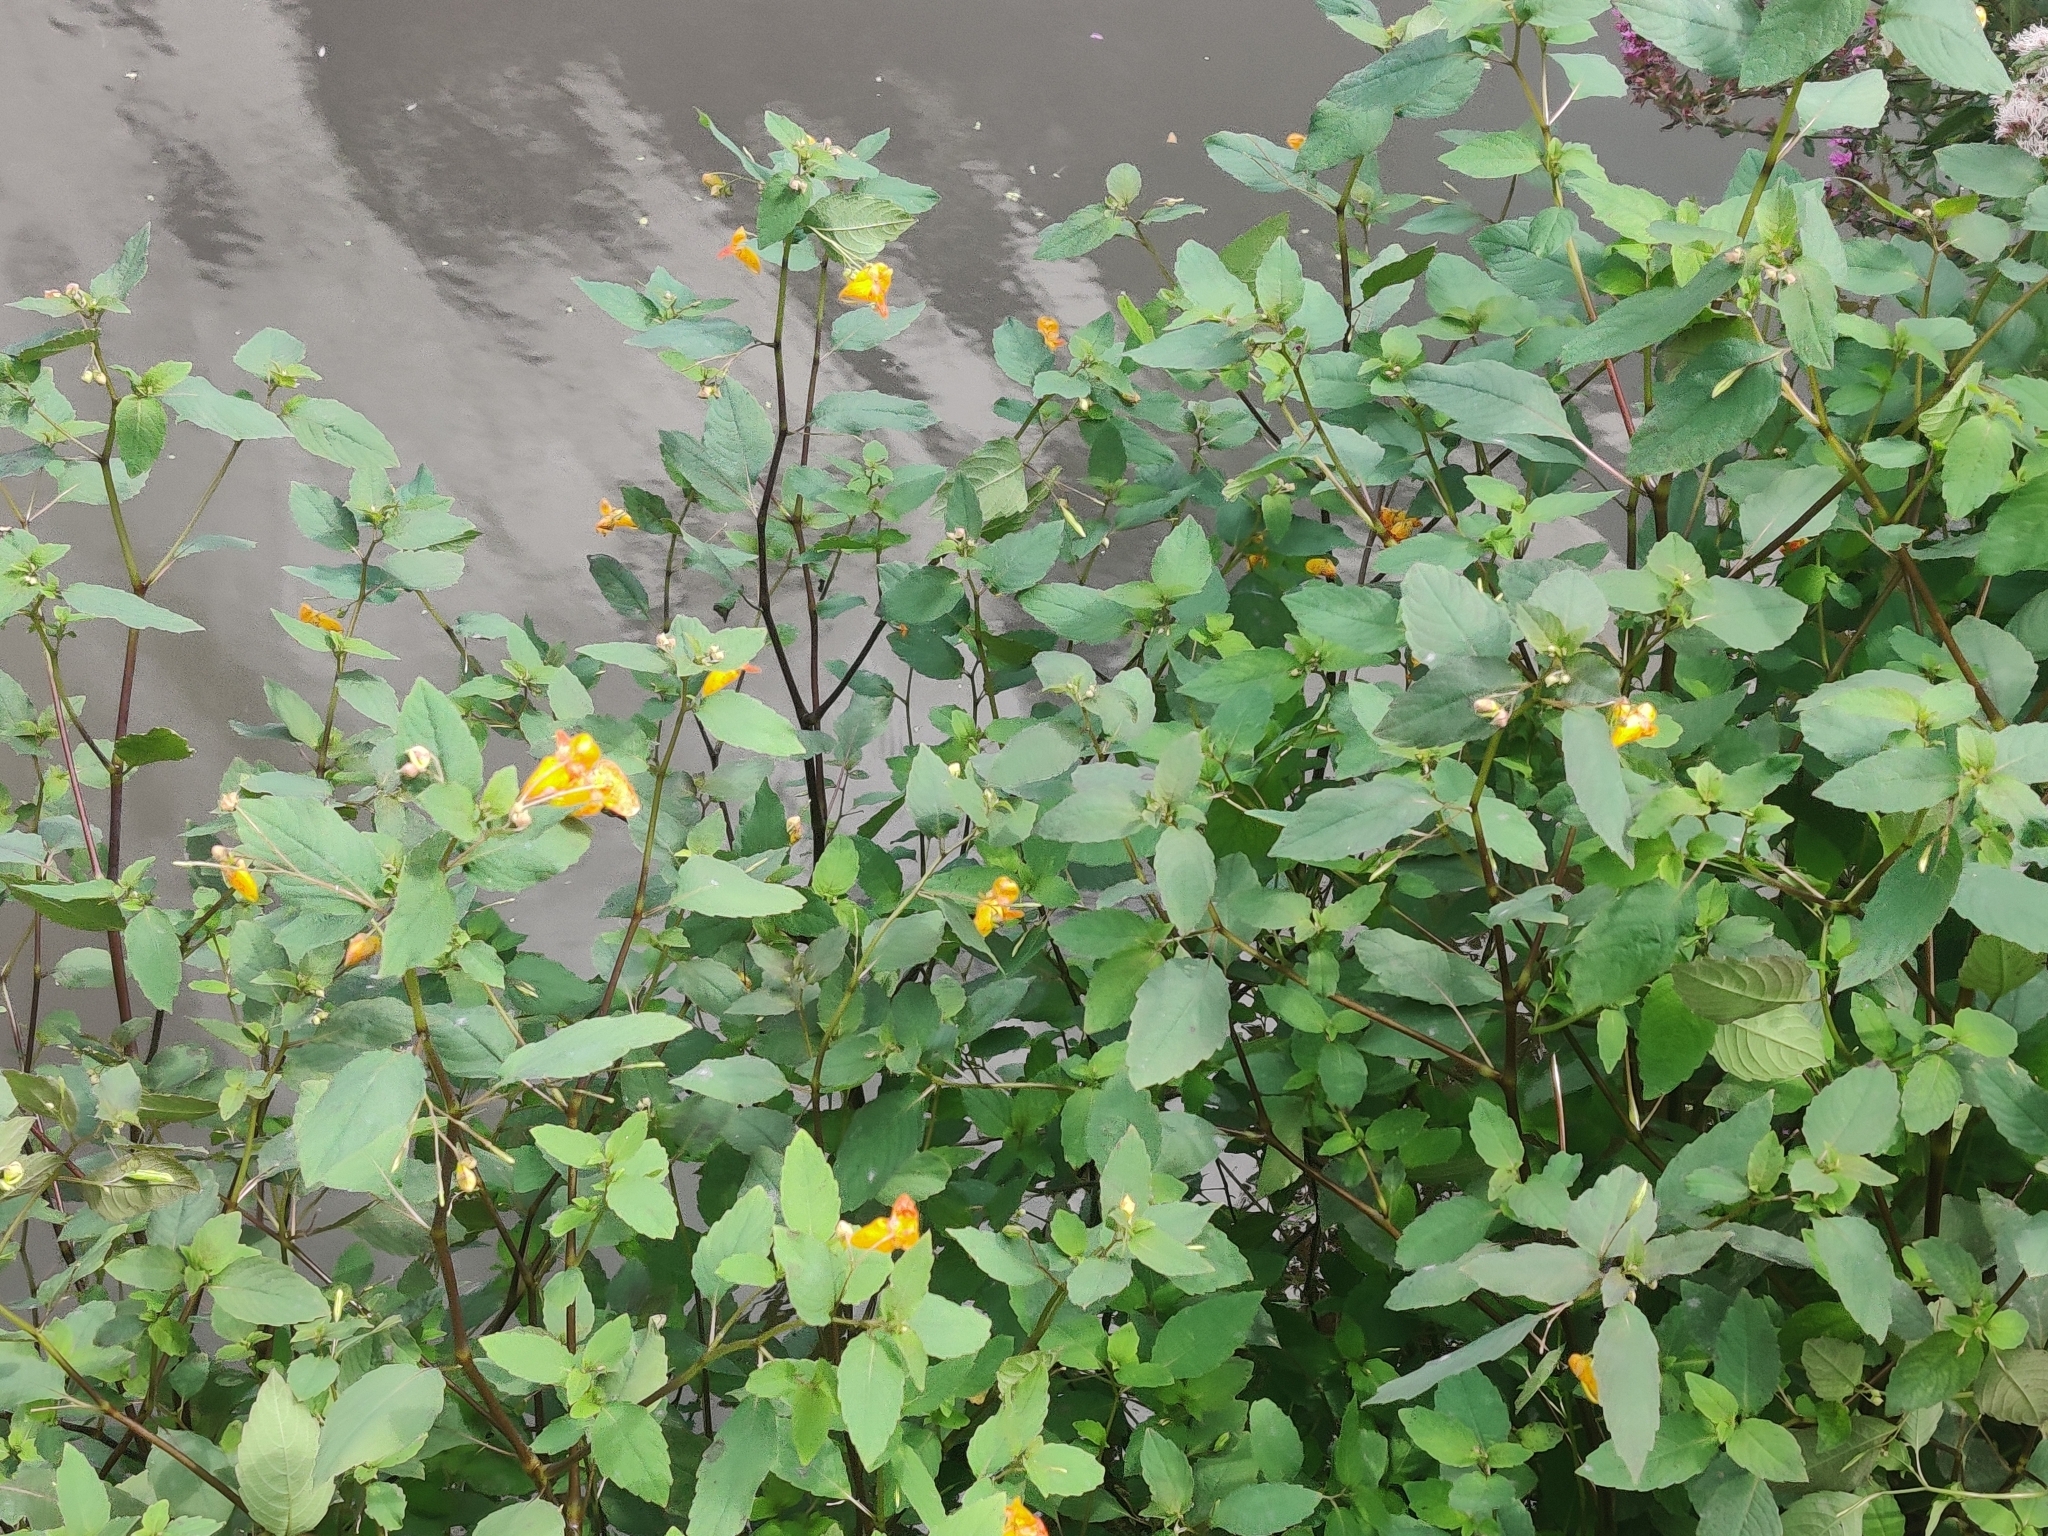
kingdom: Plantae
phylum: Tracheophyta
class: Magnoliopsida
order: Ericales
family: Balsaminaceae
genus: Impatiens
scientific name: Impatiens capensis
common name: Orange balsam
